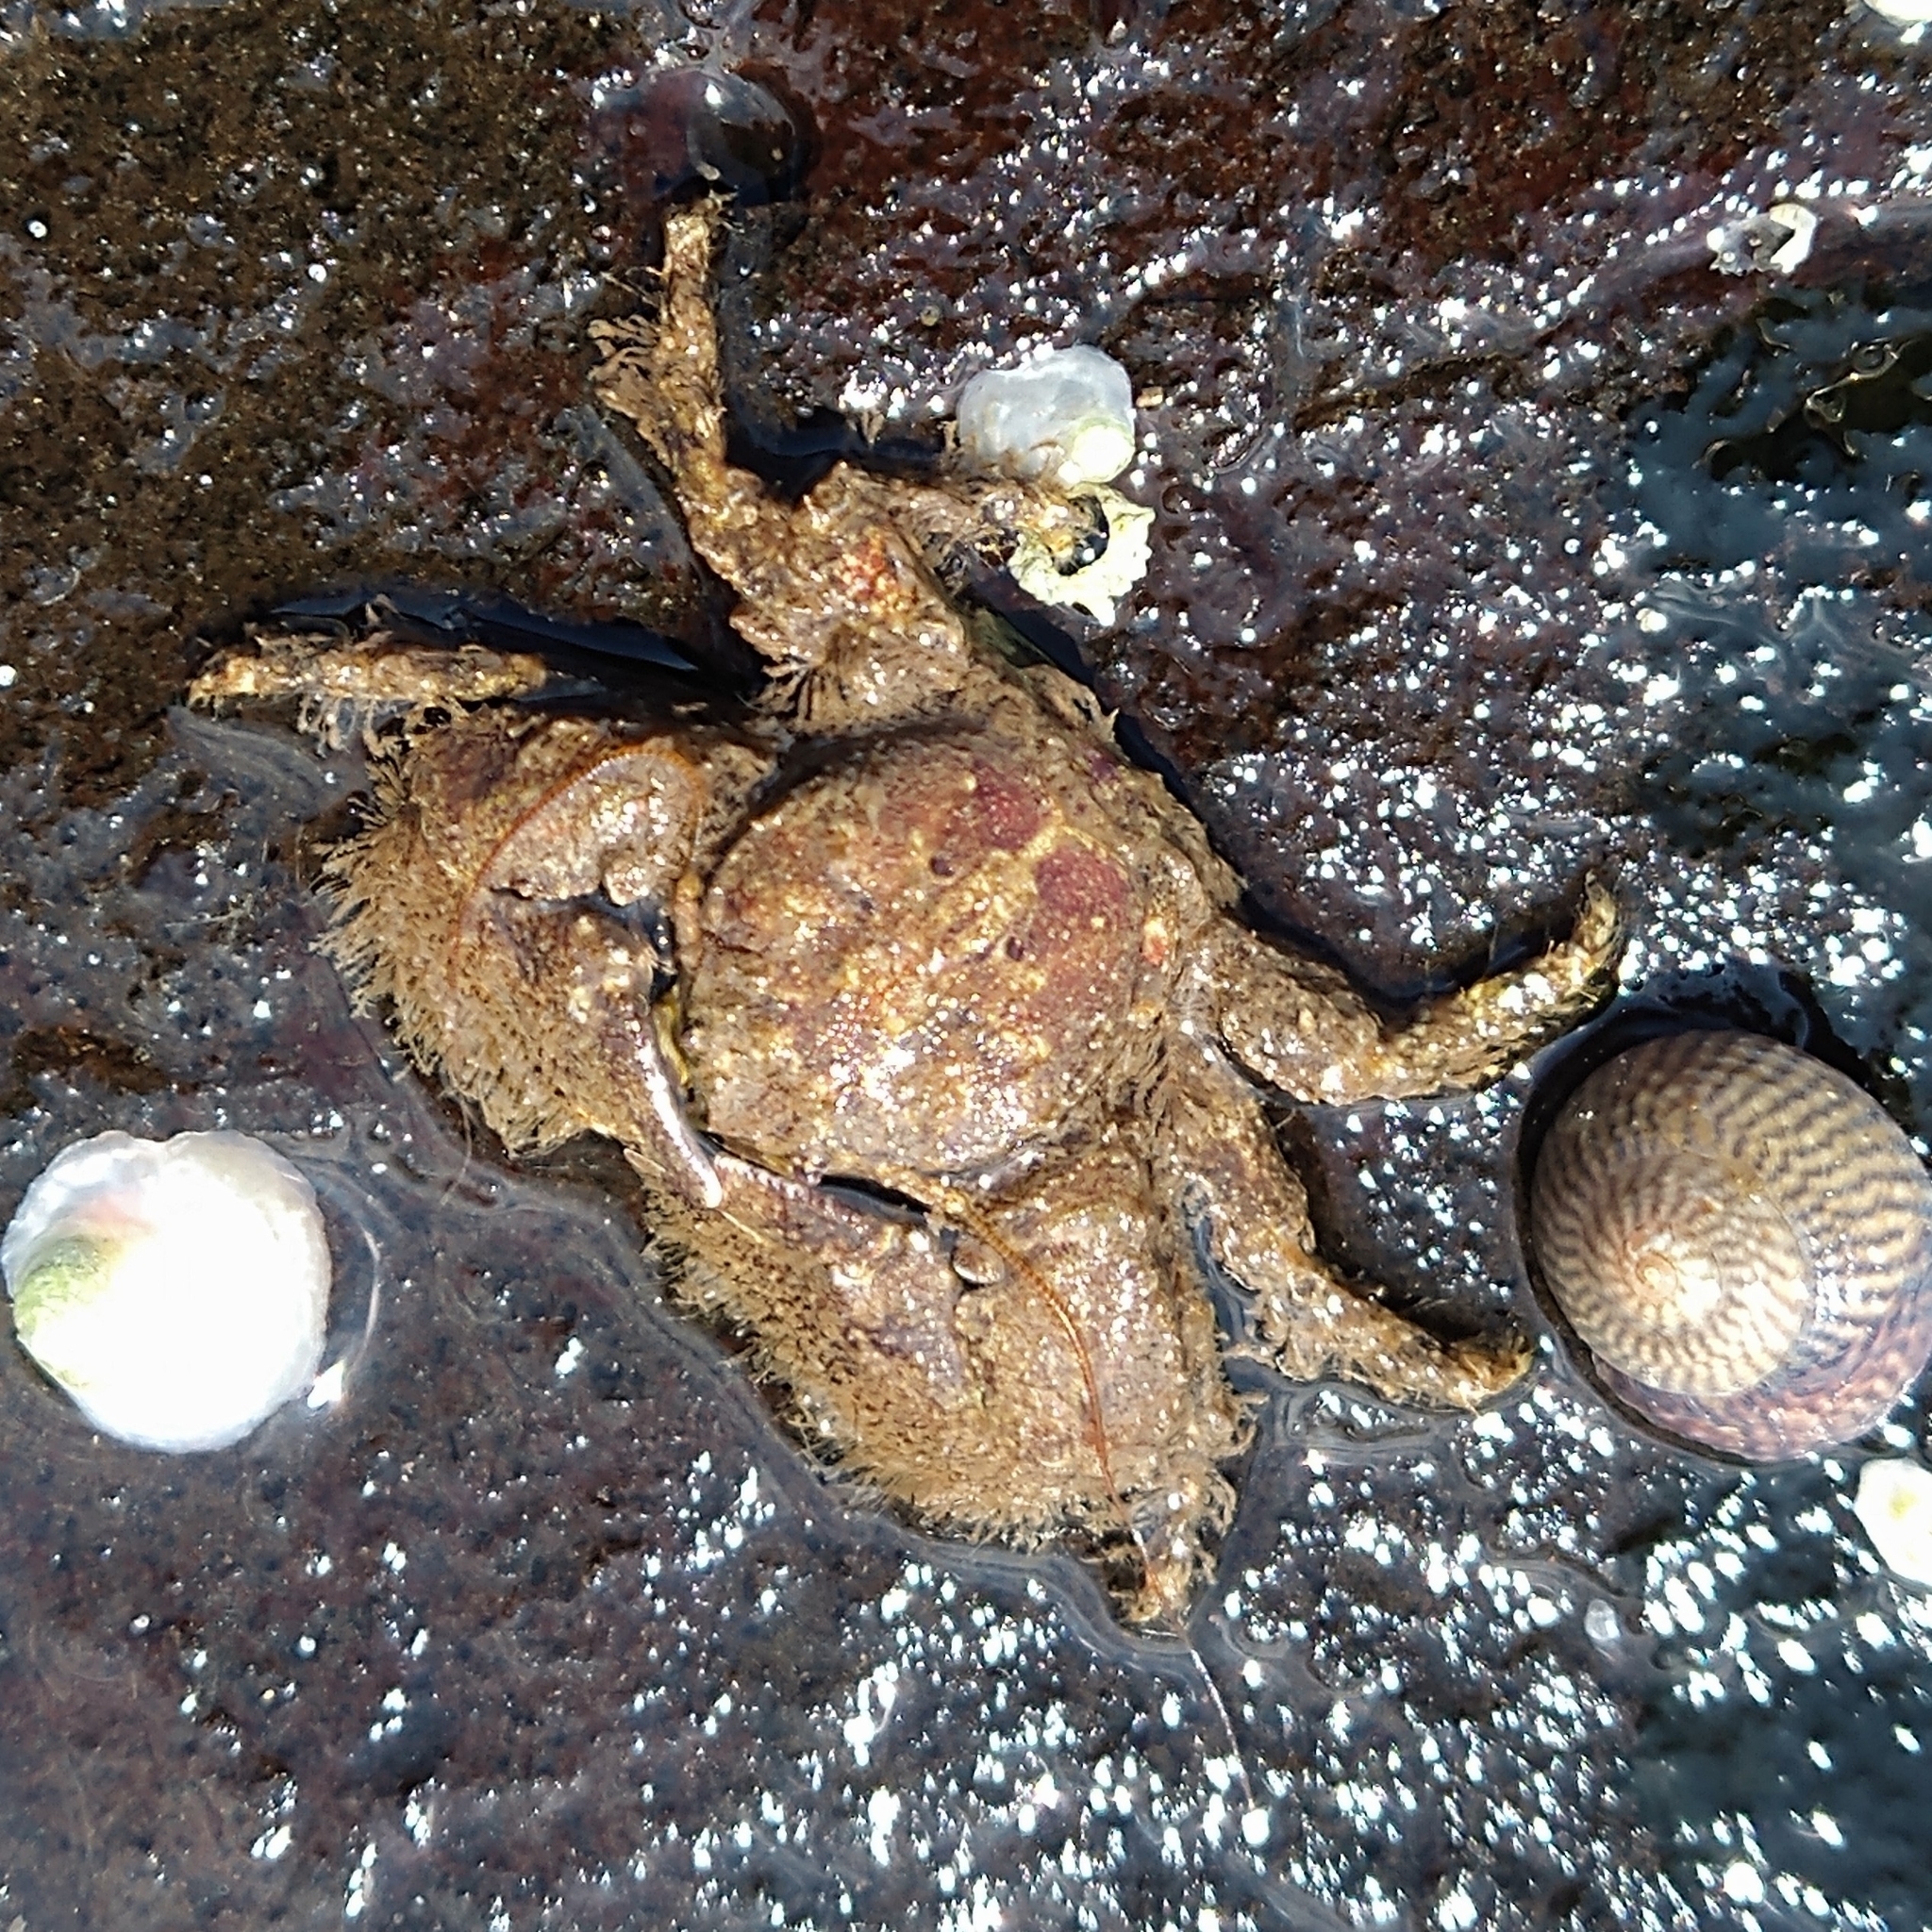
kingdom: Animalia
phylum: Arthropoda
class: Malacostraca
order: Decapoda
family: Porcellanidae
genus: Porcellana
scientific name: Porcellana platycheles
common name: Porcelain crab
